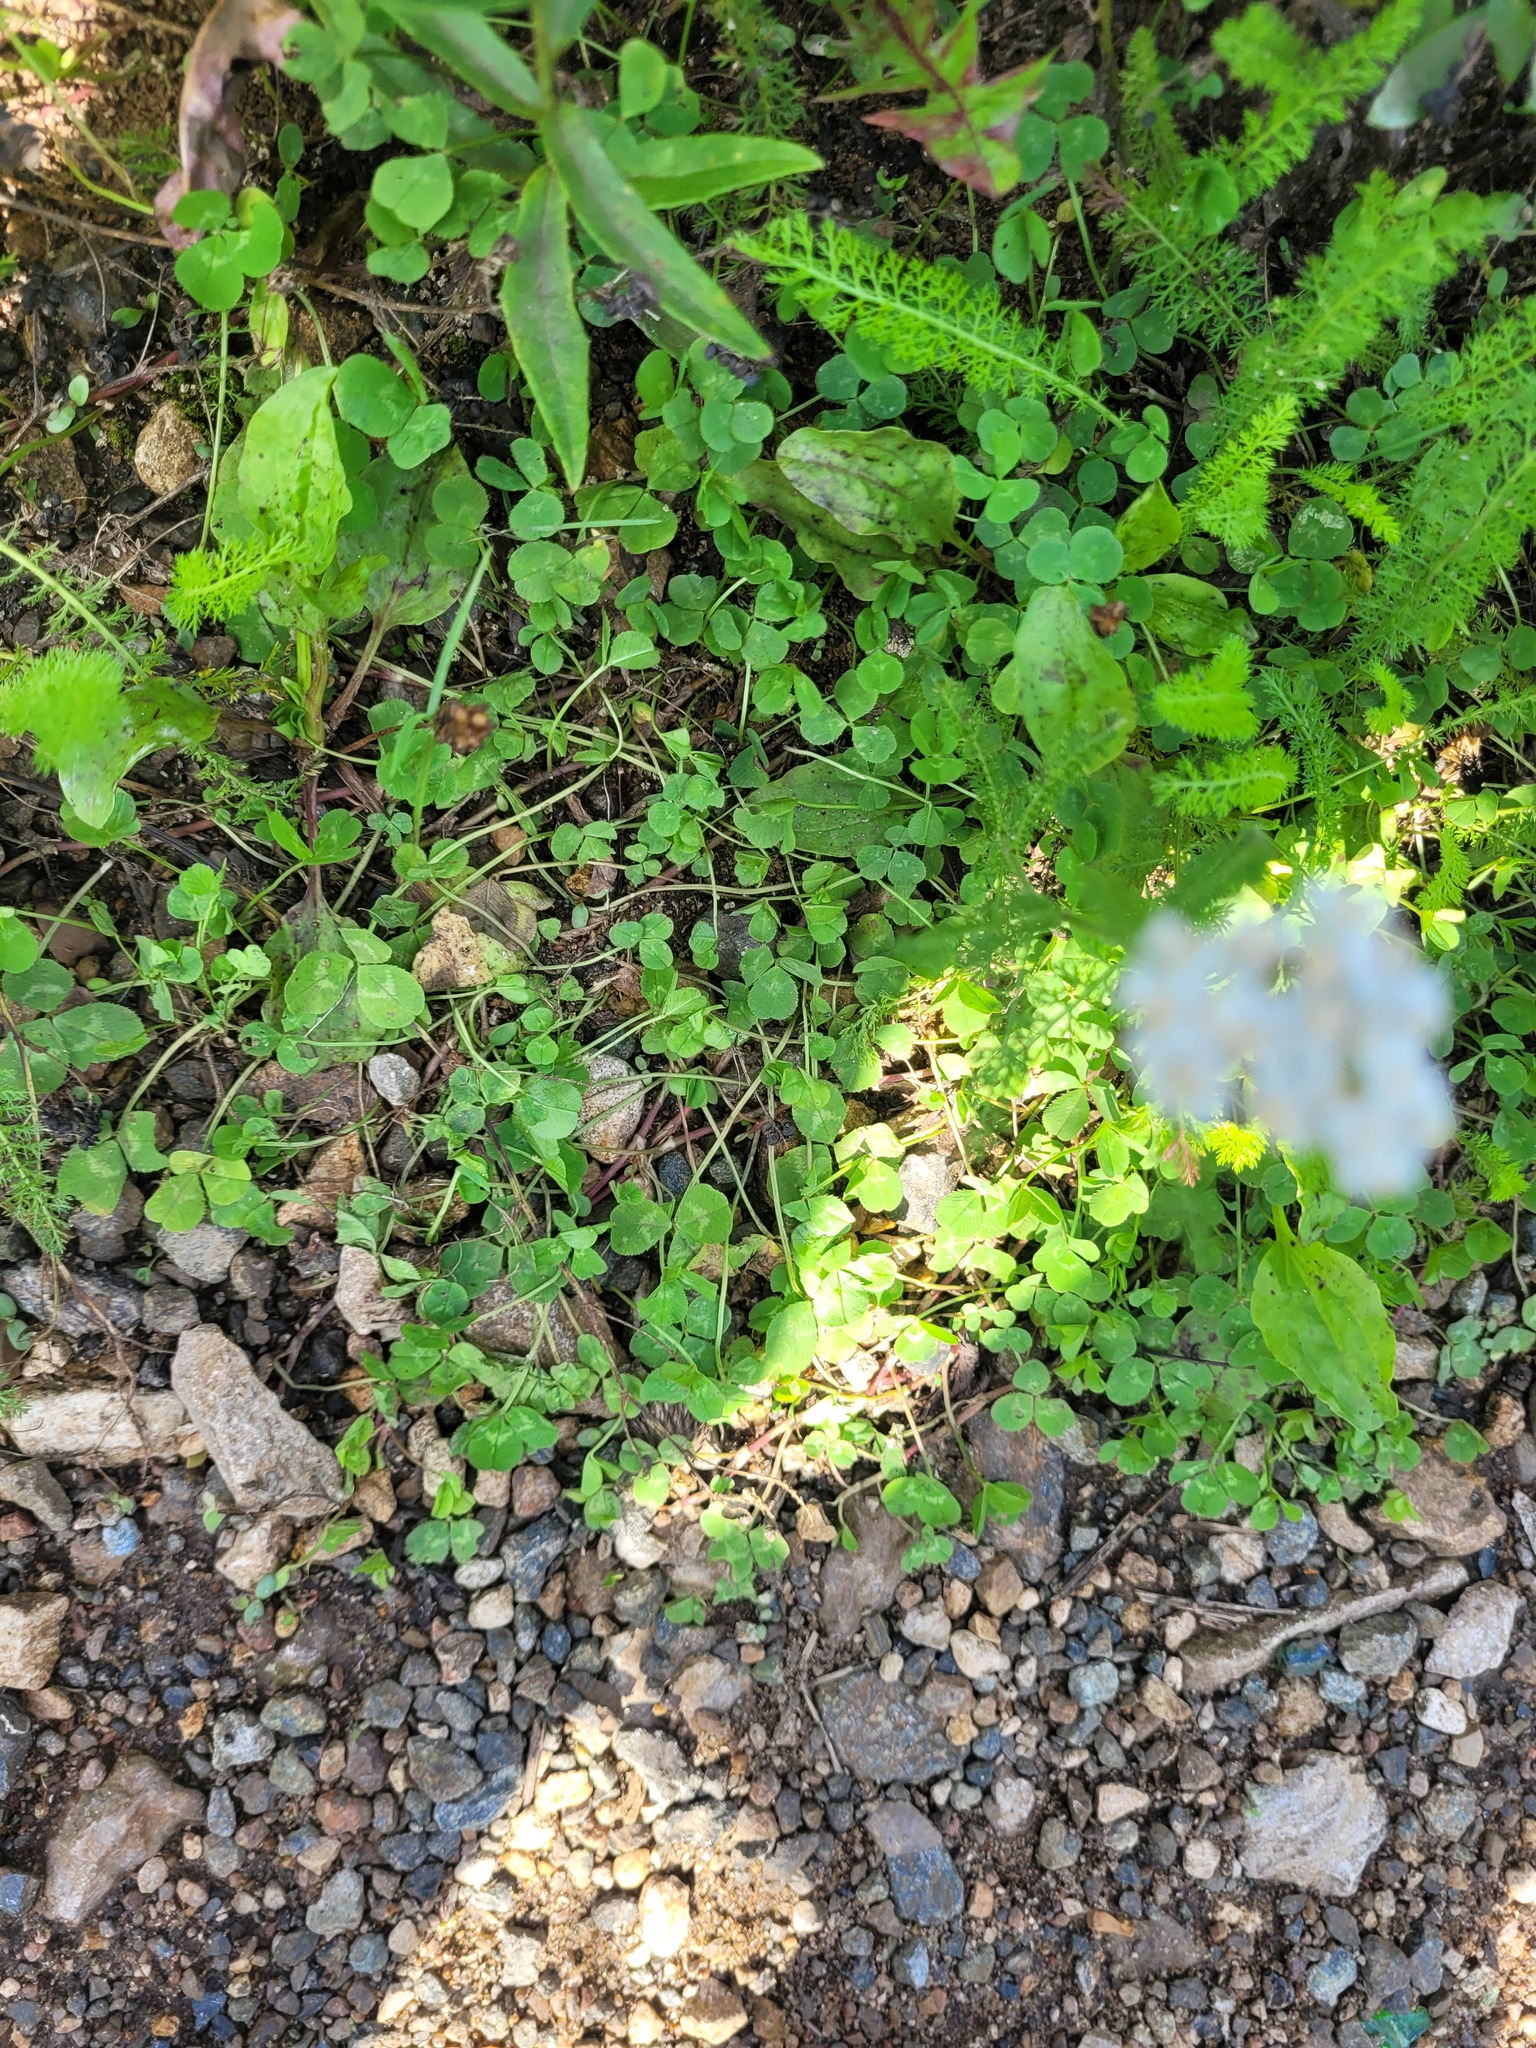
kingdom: Plantae
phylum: Tracheophyta
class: Magnoliopsida
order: Fabales
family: Fabaceae
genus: Trifolium
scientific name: Trifolium repens
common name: White clover
